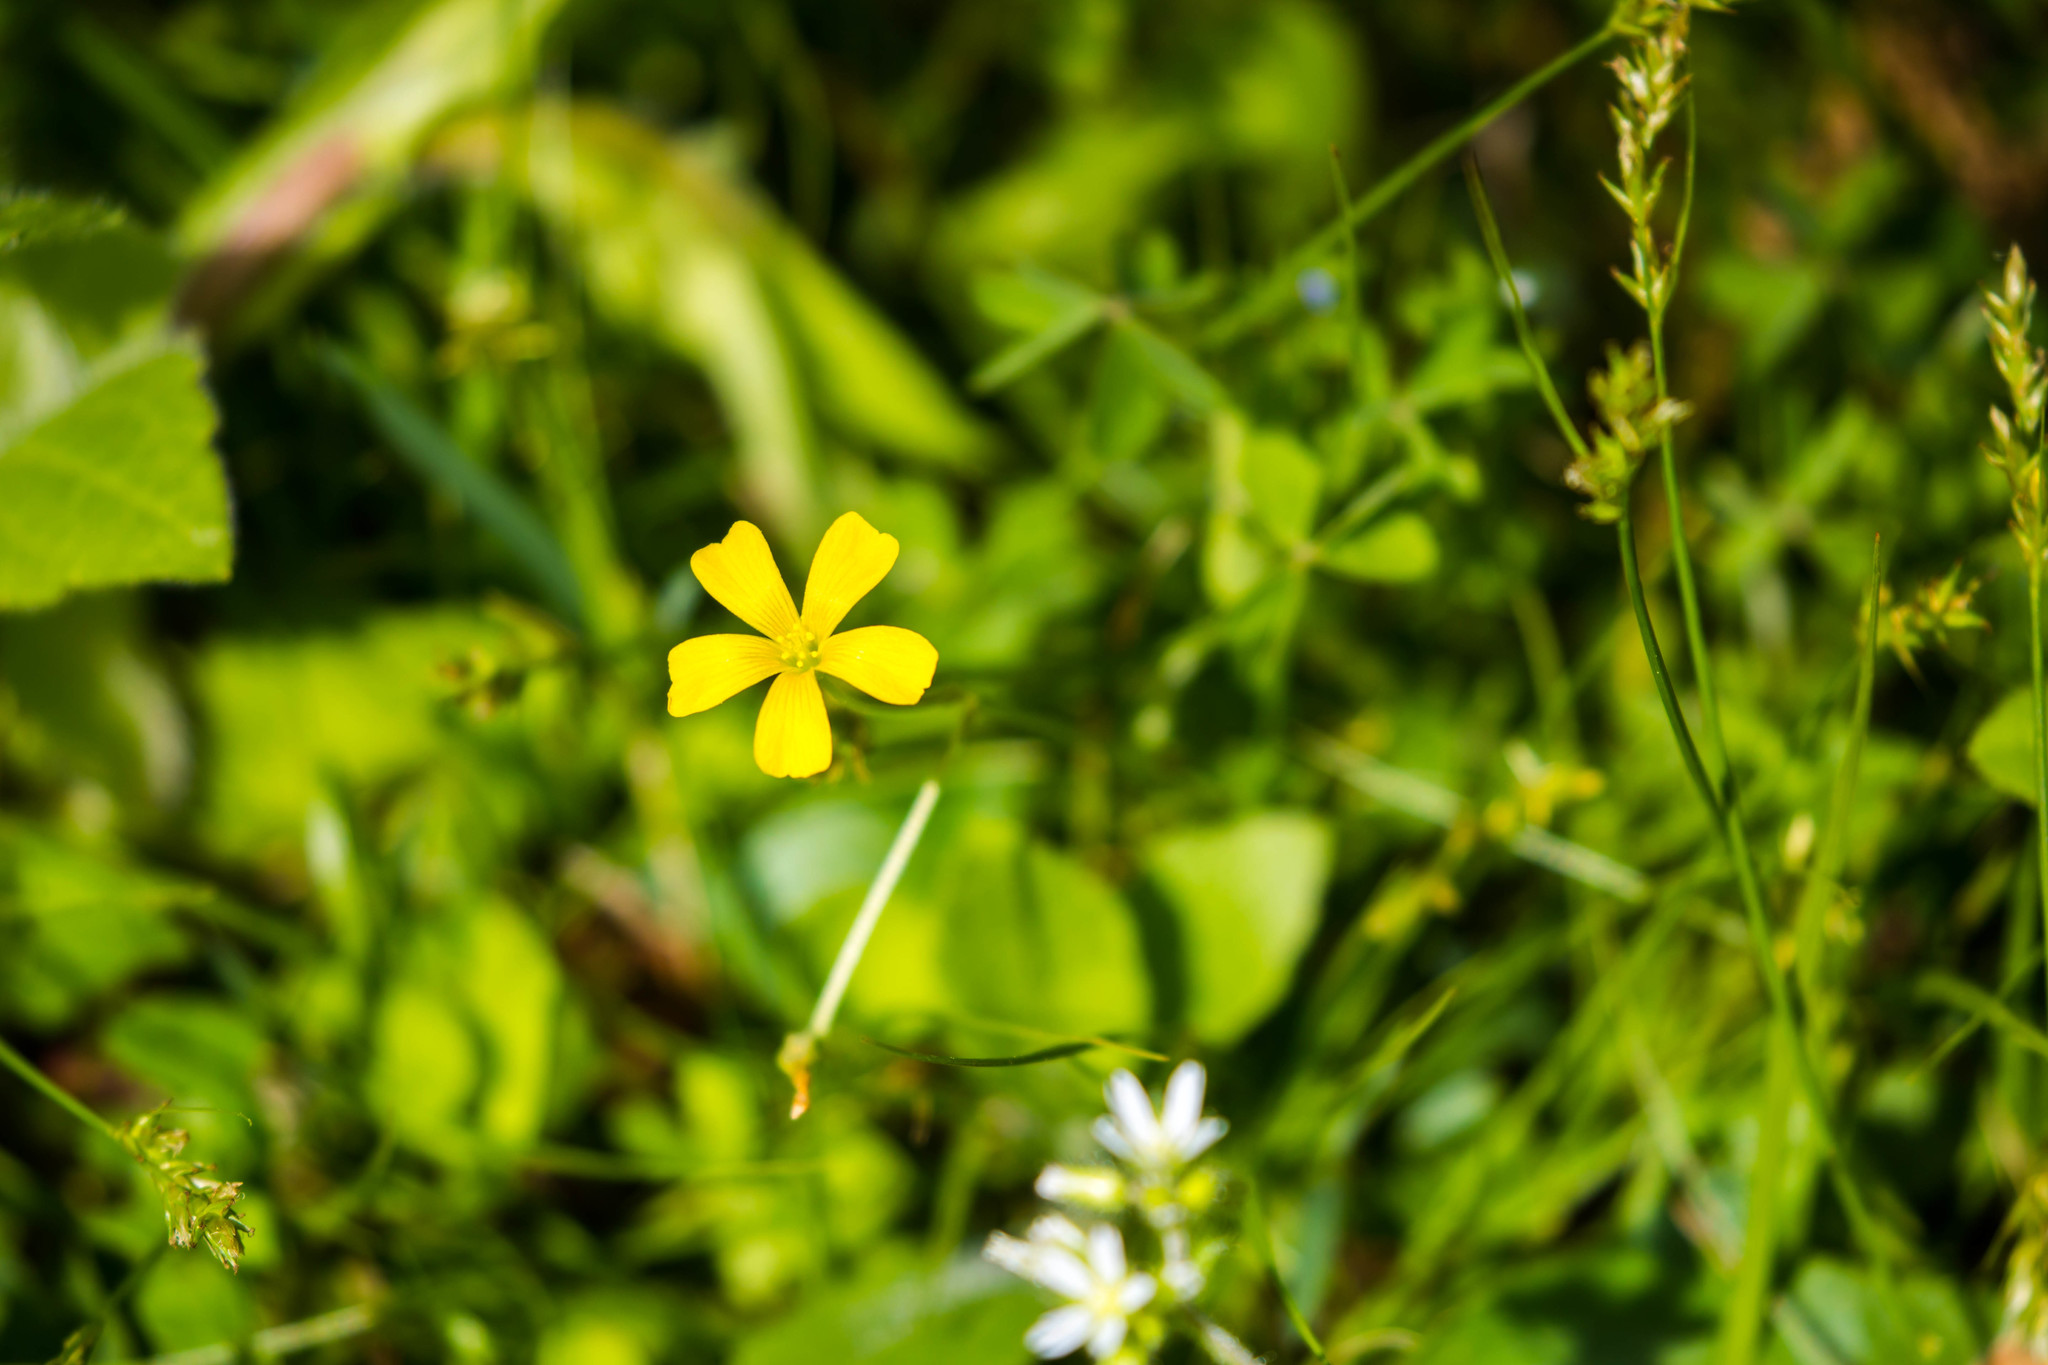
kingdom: Plantae
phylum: Tracheophyta
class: Magnoliopsida
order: Oxalidales
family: Oxalidaceae
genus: Oxalis
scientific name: Oxalis corniculata
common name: Procumbent yellow-sorrel
